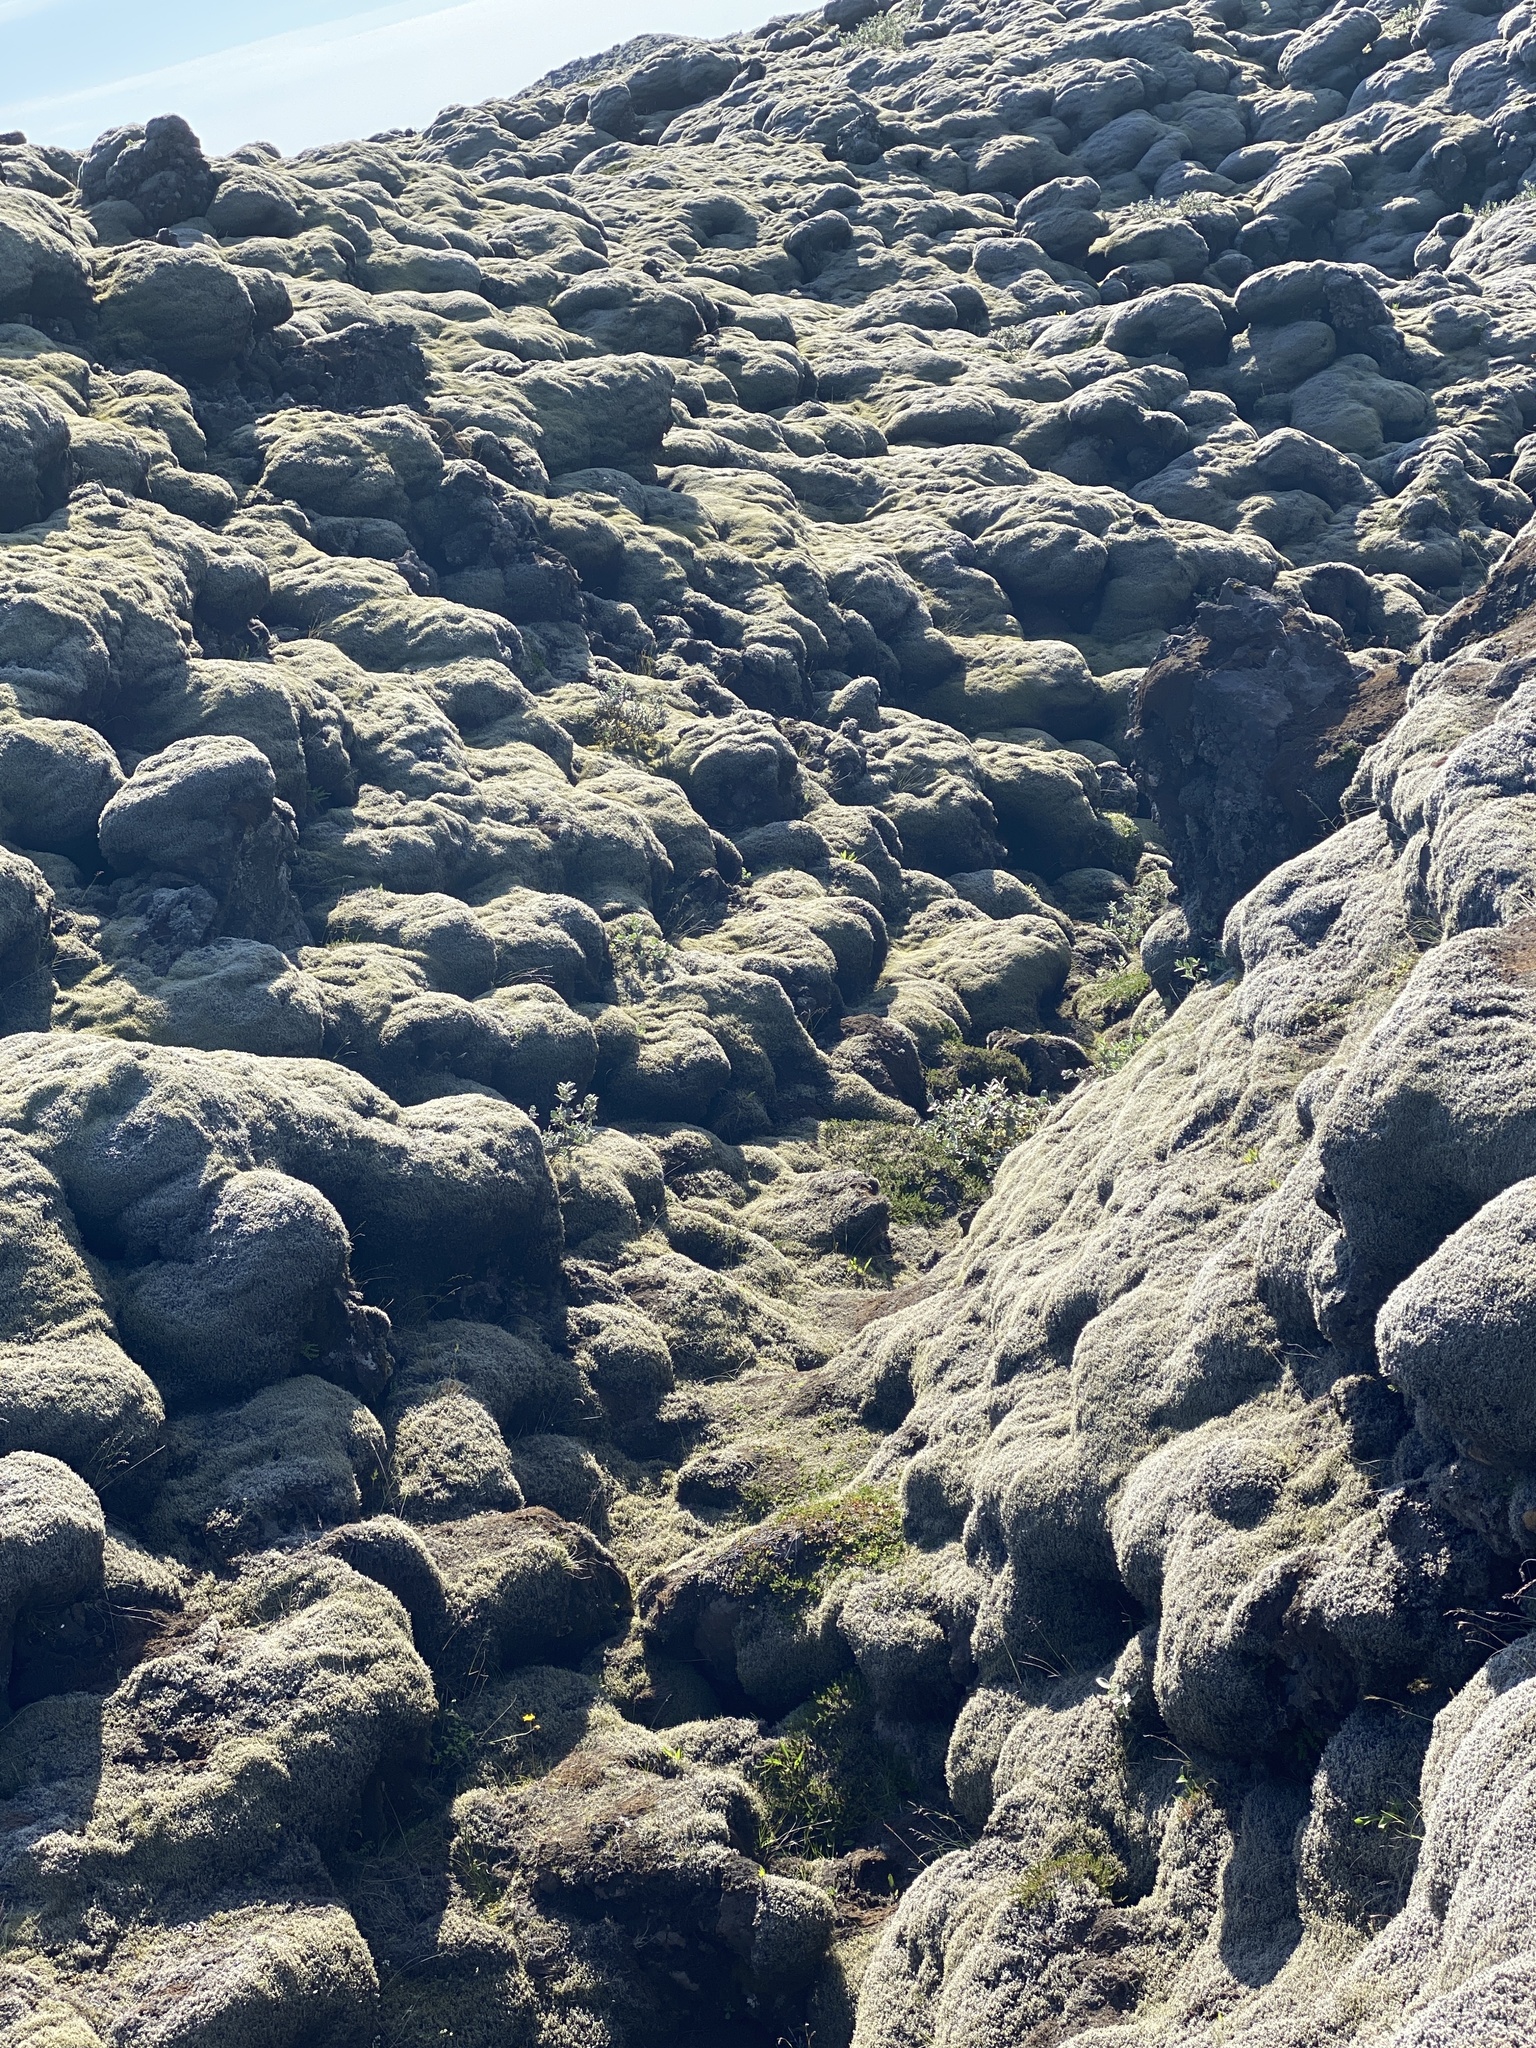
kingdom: Plantae
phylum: Bryophyta
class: Bryopsida
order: Grimmiales
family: Grimmiaceae
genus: Racomitrium
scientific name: Racomitrium lanuginosum
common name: Hoary rock moss
